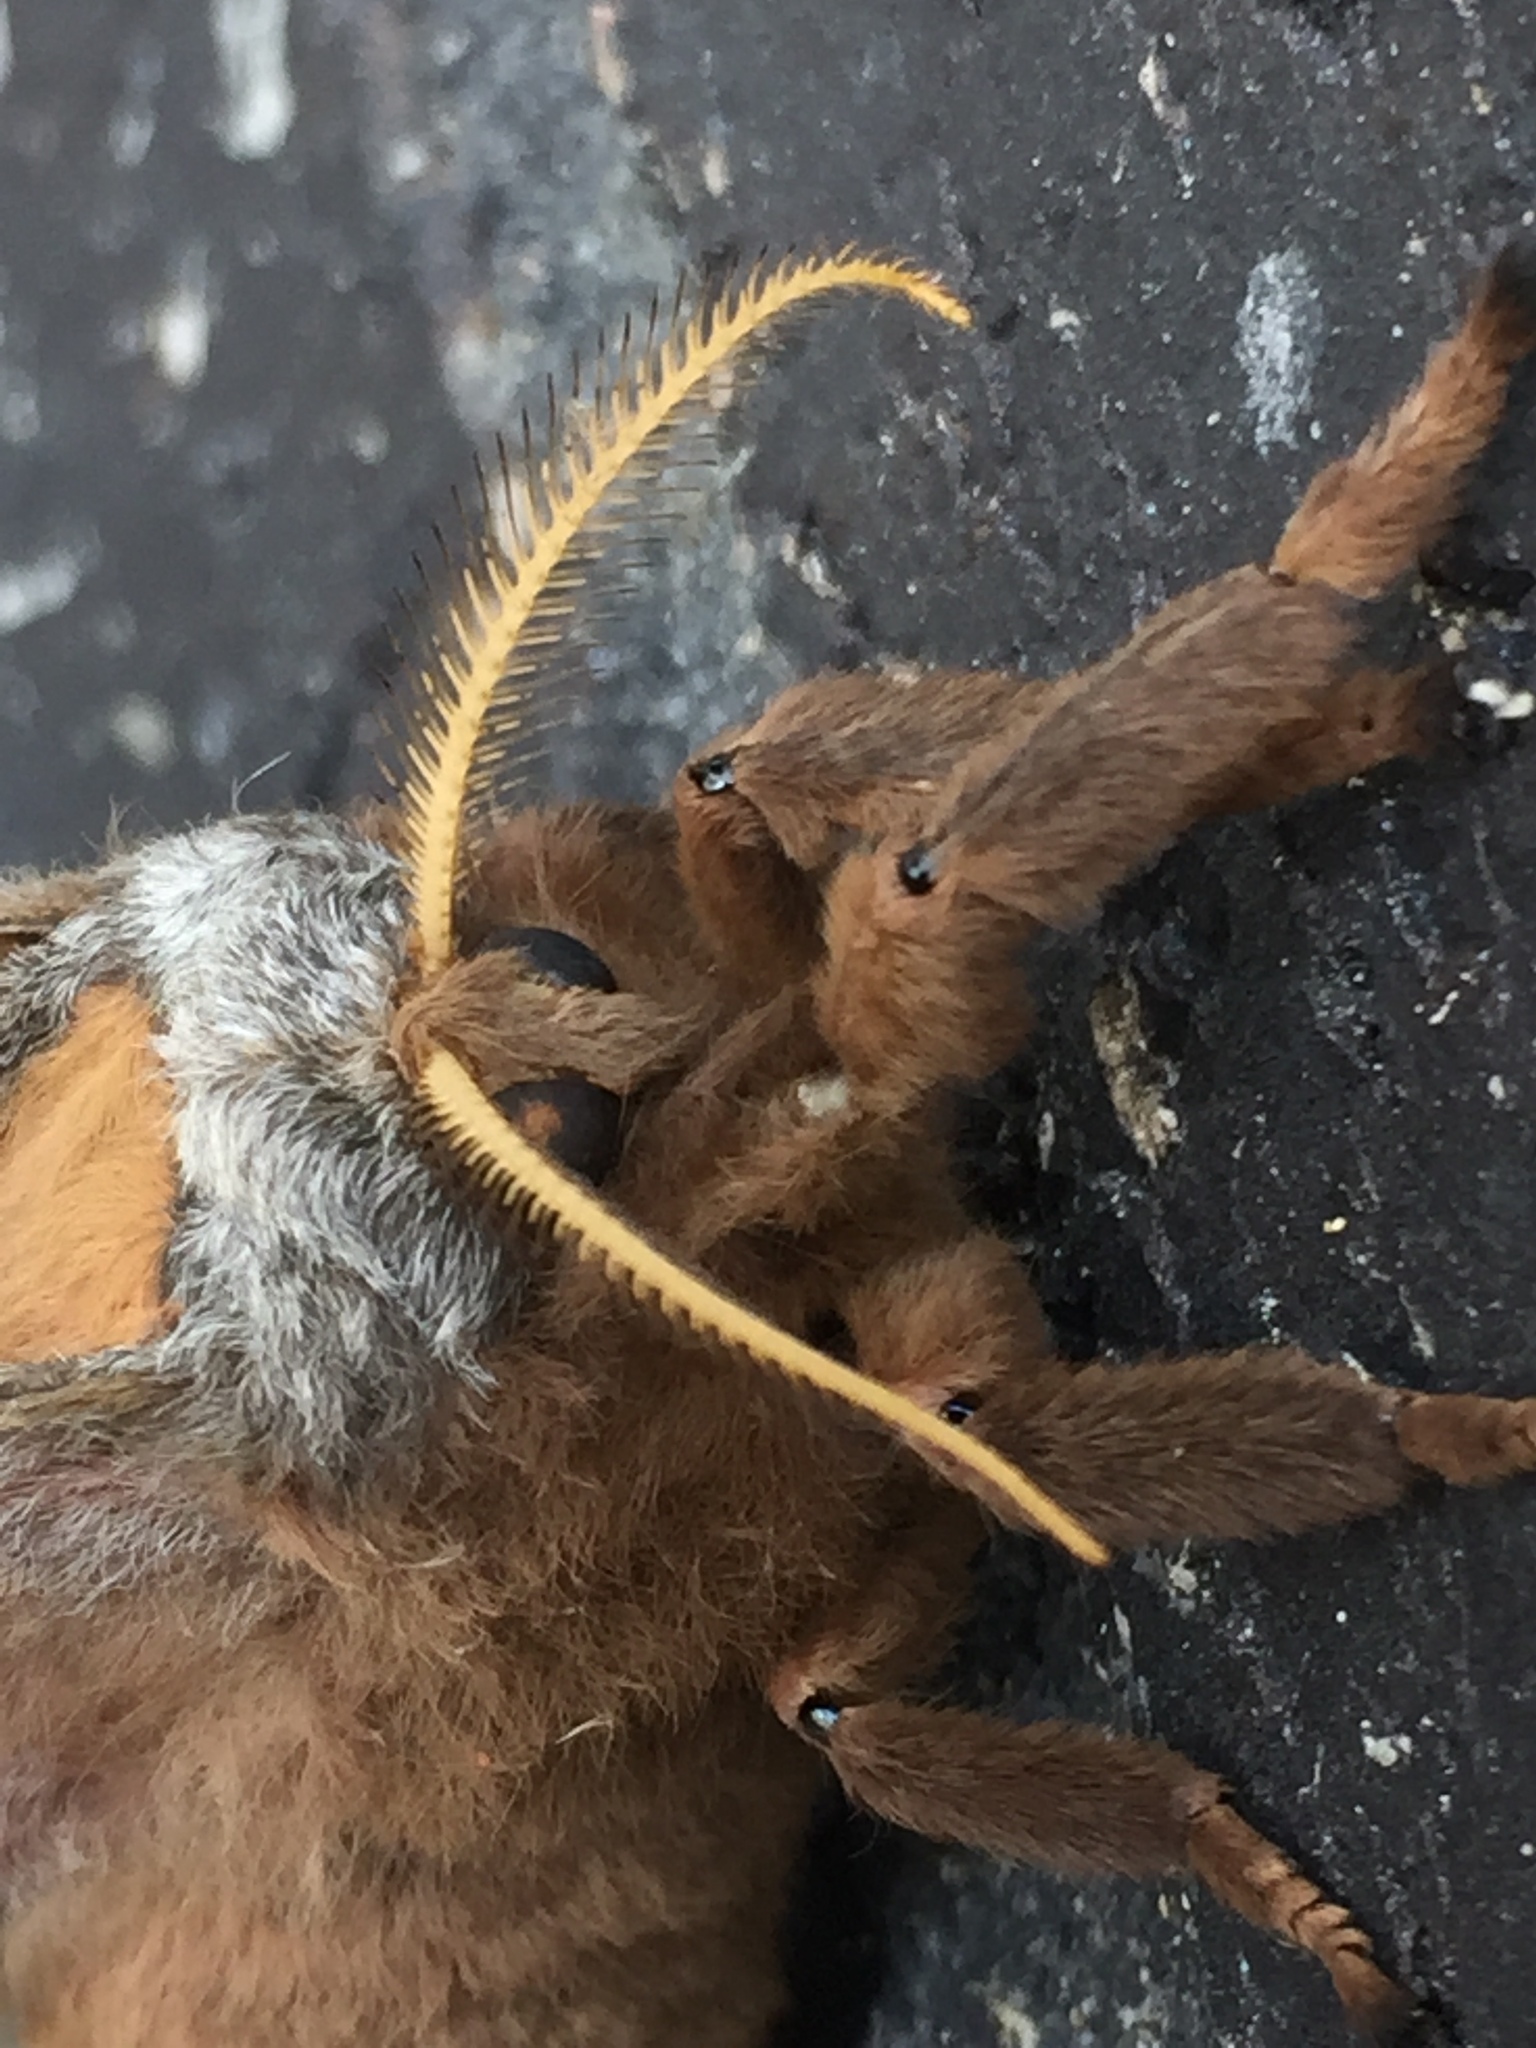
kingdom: Animalia
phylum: Arthropoda
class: Insecta
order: Lepidoptera
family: Saturniidae
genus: Antheraea
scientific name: Antheraea polyphemus
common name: Polyphemus moth
